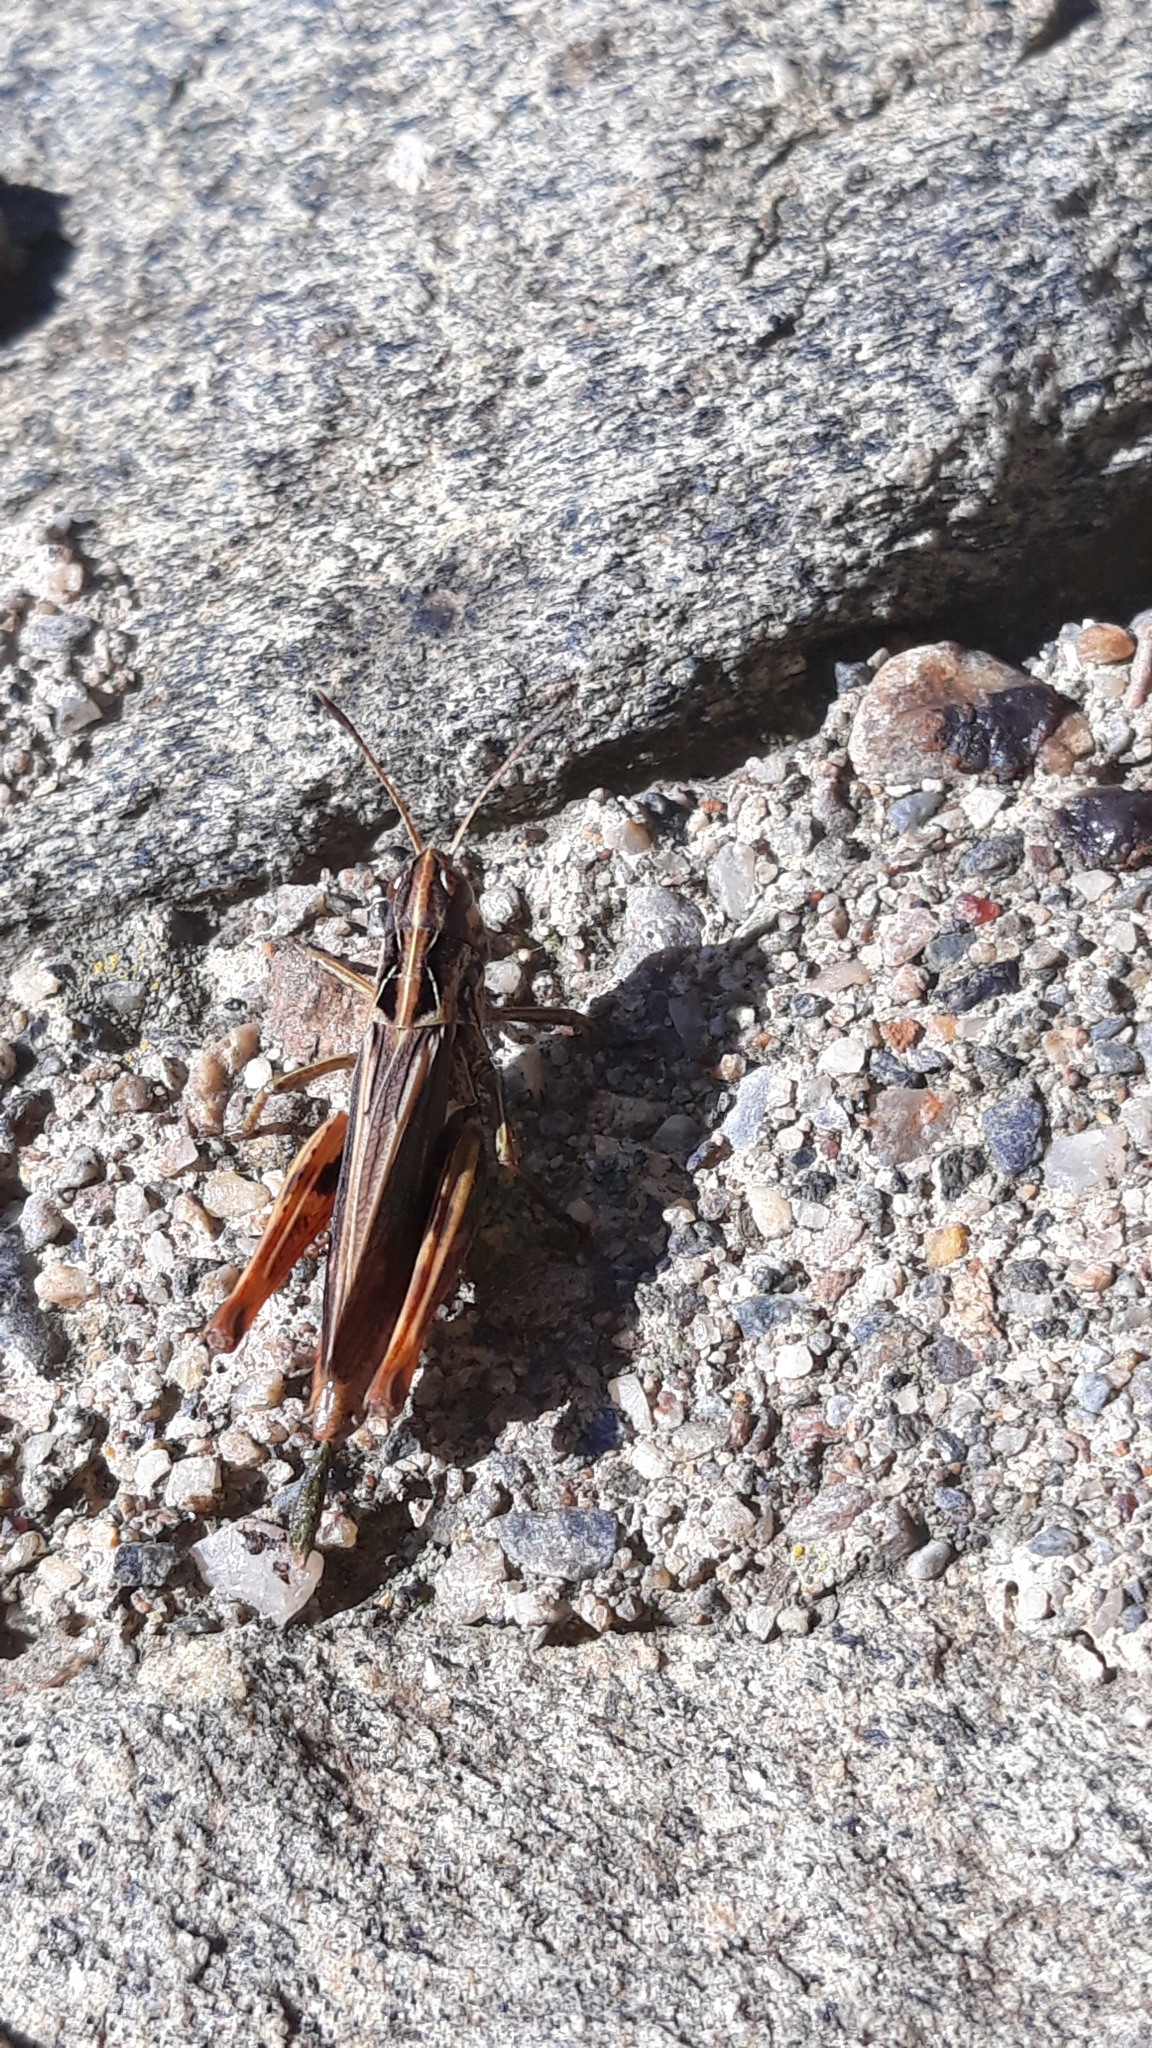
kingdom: Animalia
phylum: Arthropoda
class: Insecta
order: Orthoptera
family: Acrididae
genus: Gomphocerippus
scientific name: Gomphocerippus rufus
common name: Rufous grasshopper
